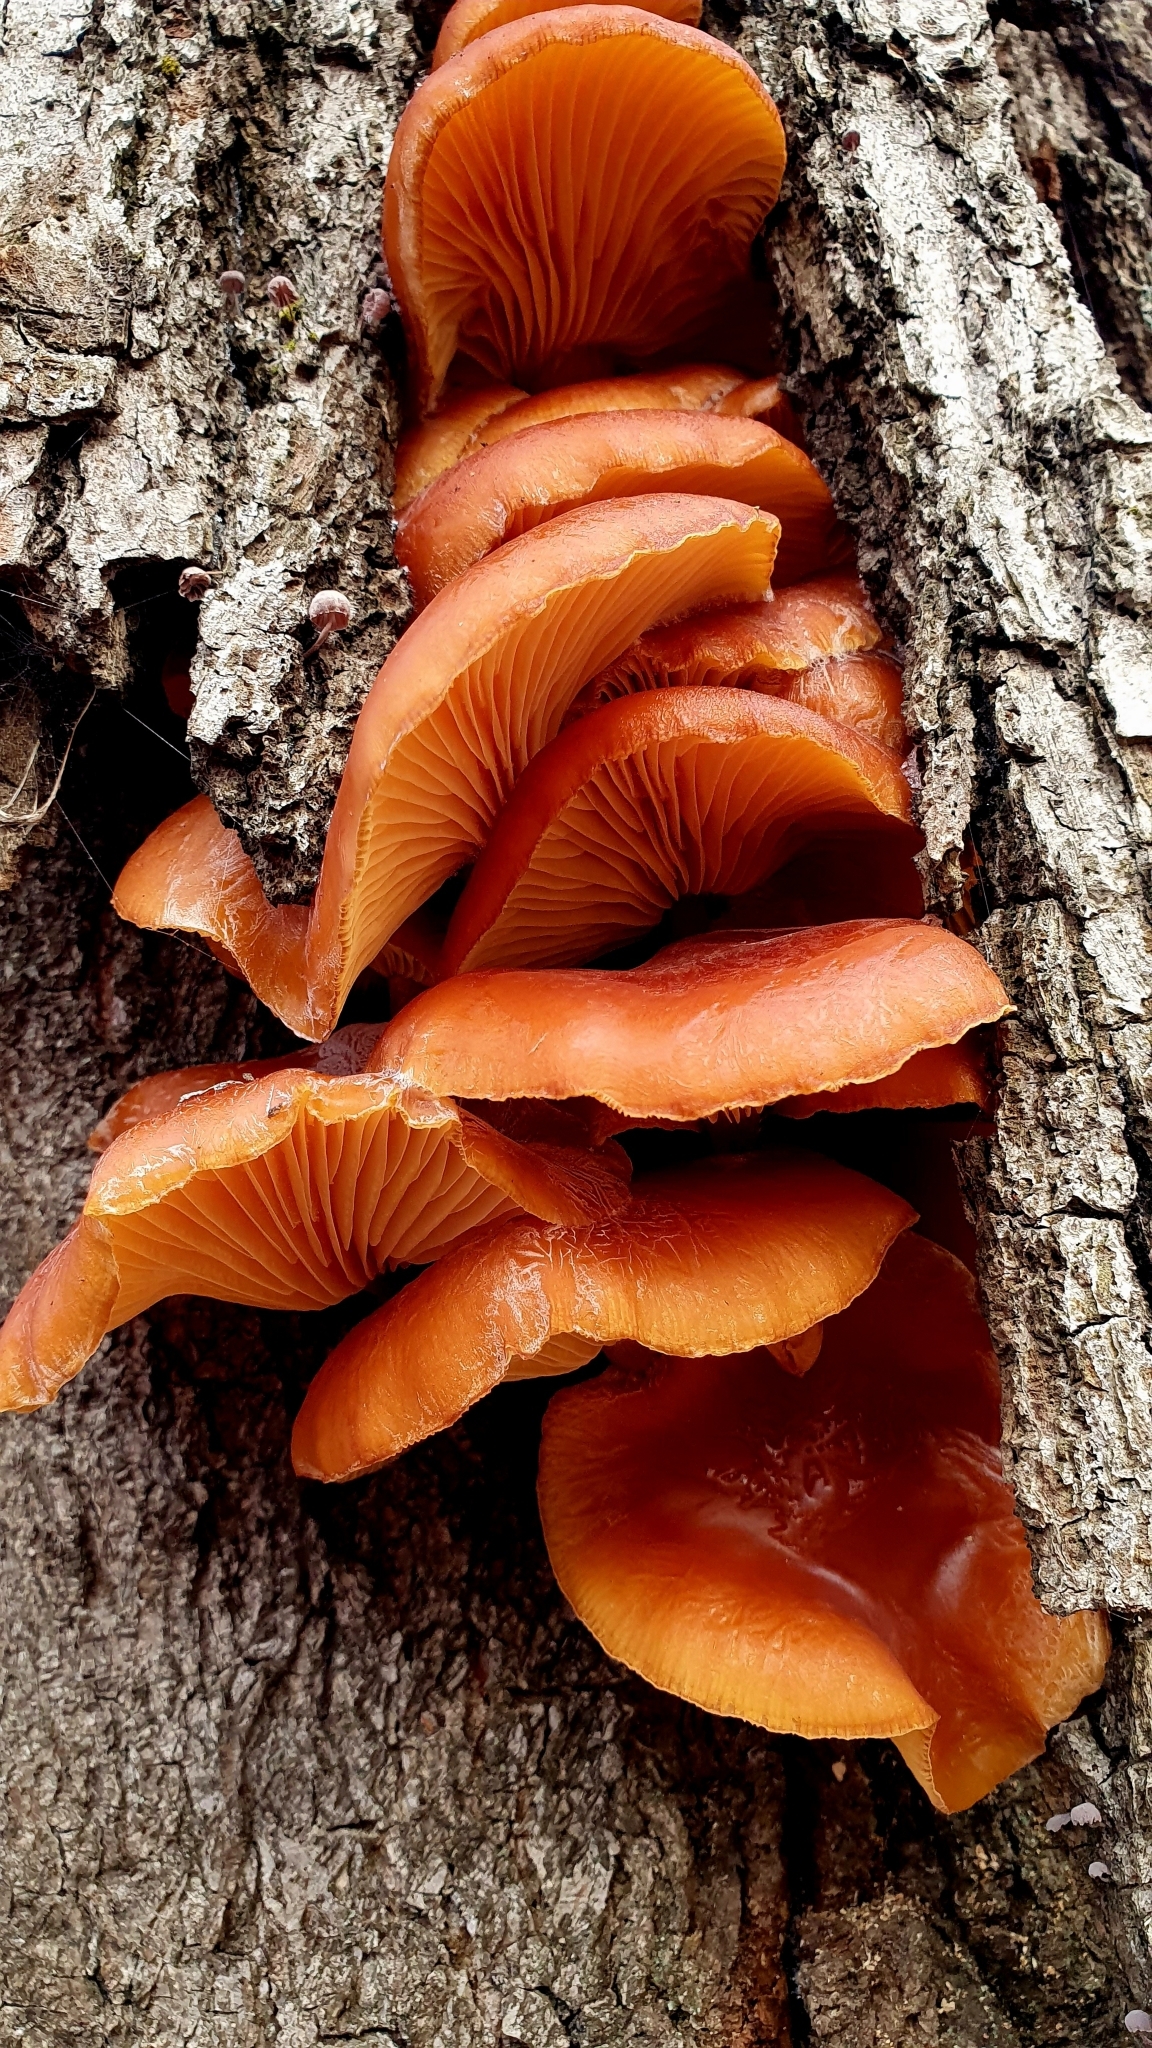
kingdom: Fungi
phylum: Basidiomycota
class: Agaricomycetes
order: Agaricales
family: Physalacriaceae
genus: Flammulina
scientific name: Flammulina
